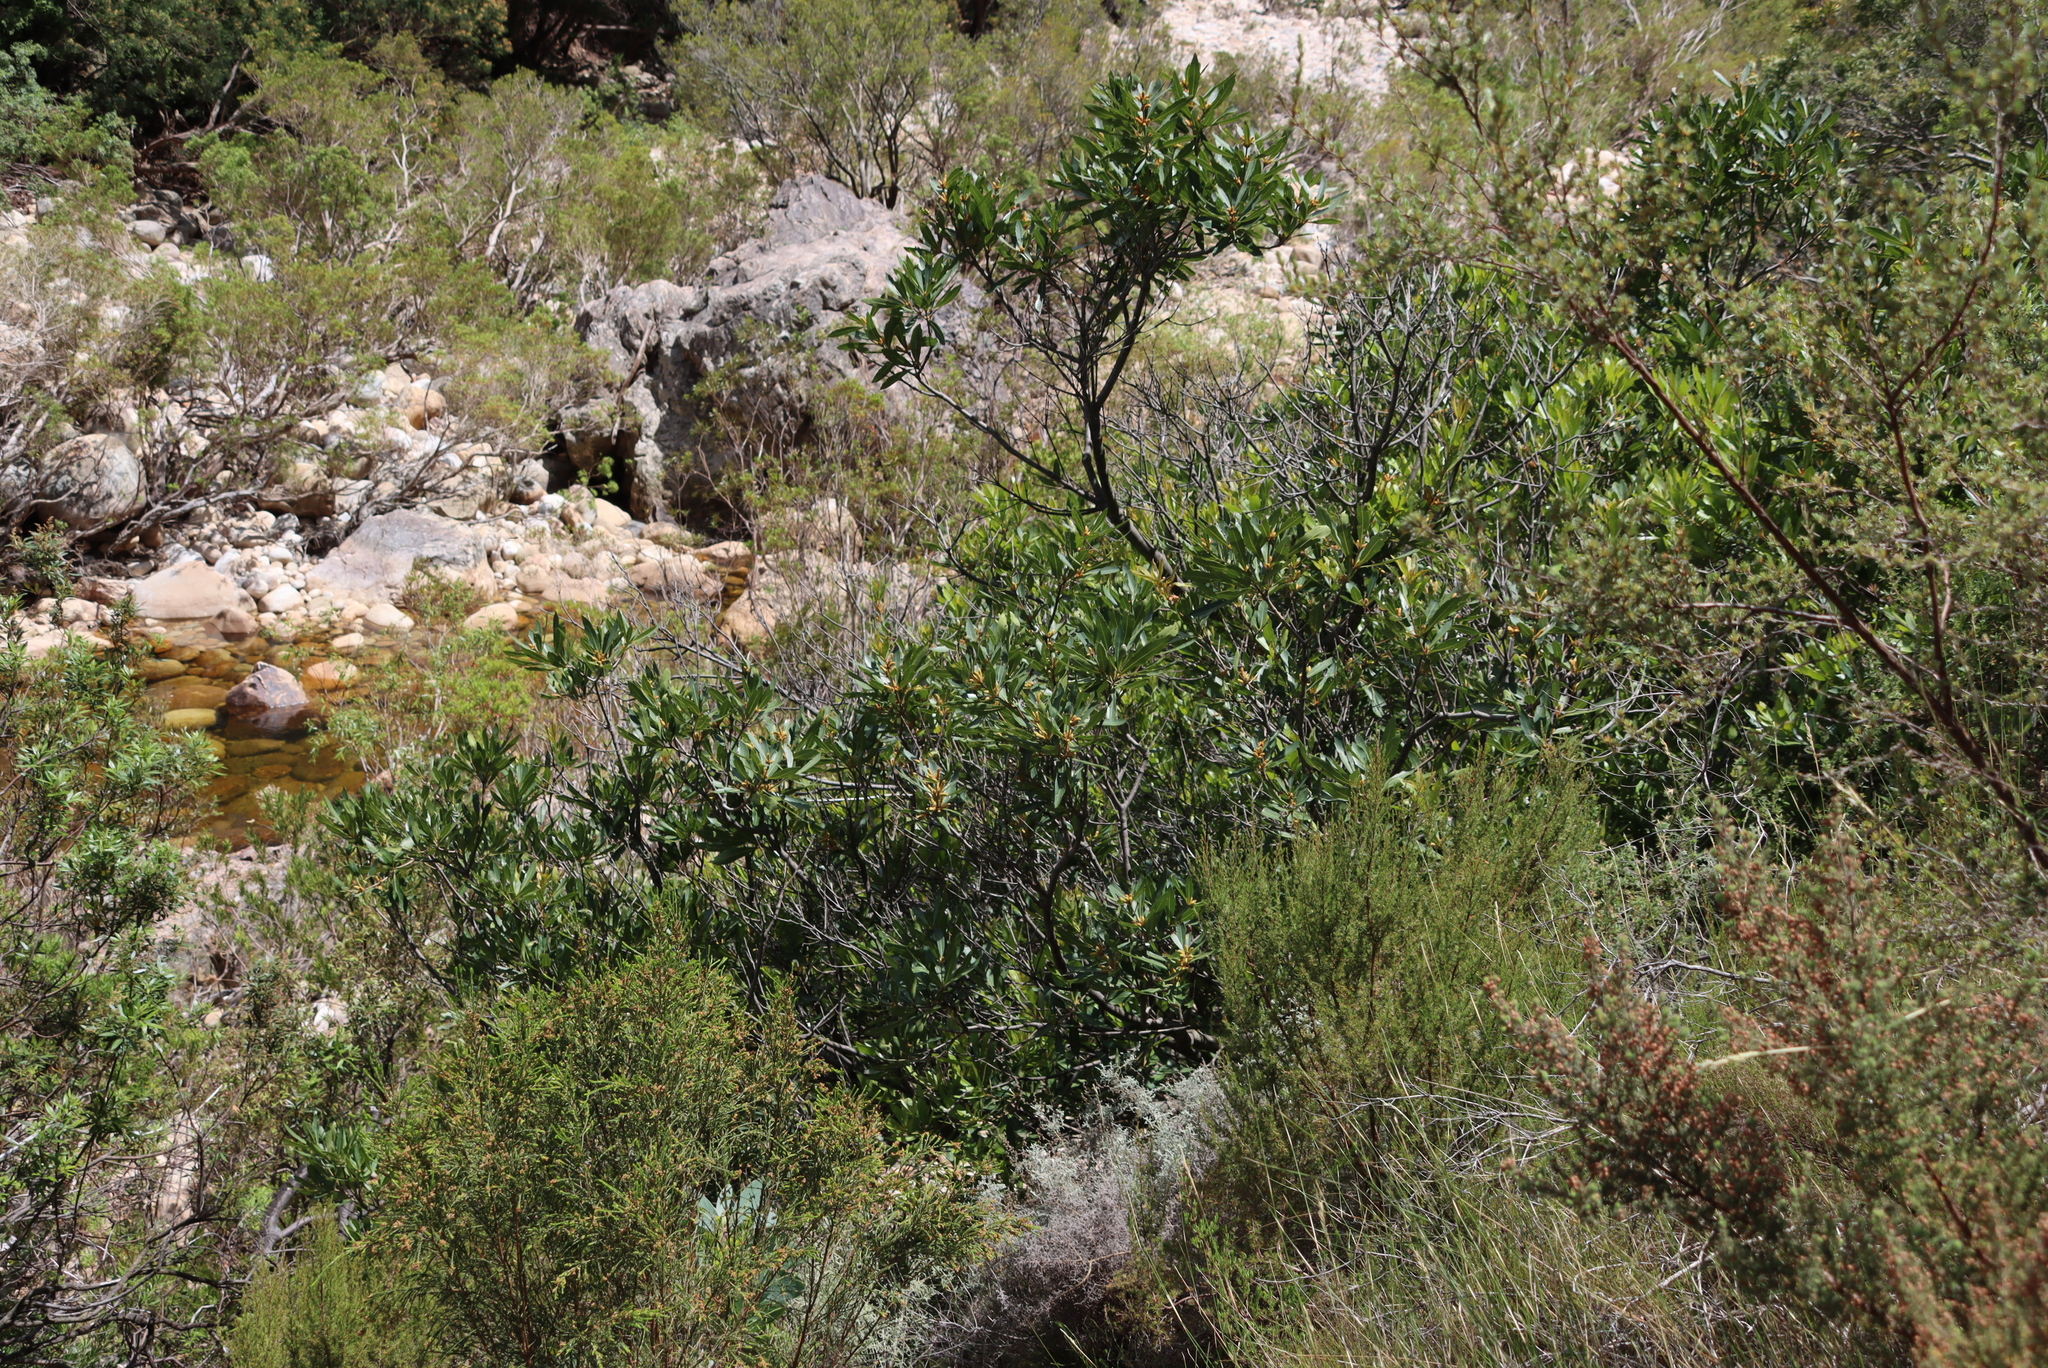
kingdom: Plantae
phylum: Tracheophyta
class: Magnoliopsida
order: Proteales
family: Proteaceae
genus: Brabejum
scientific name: Brabejum stellatifolium
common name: Wild almond
